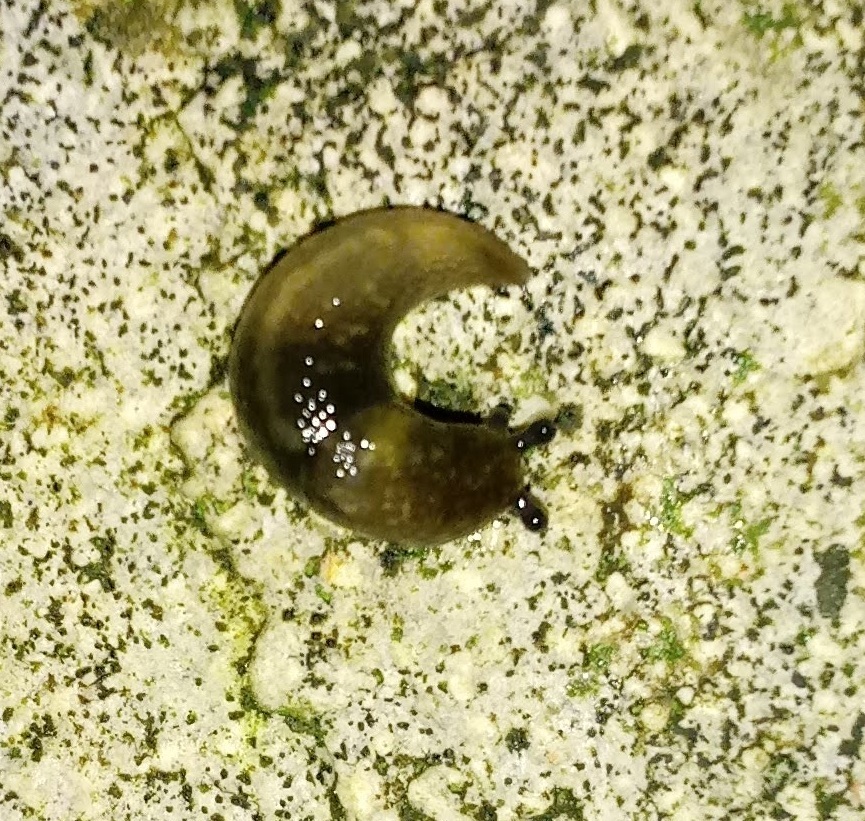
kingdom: Animalia
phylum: Mollusca
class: Gastropoda
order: Stylommatophora
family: Limacidae
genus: Limacus
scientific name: Limacus flavus
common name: Yellow gardenslug
